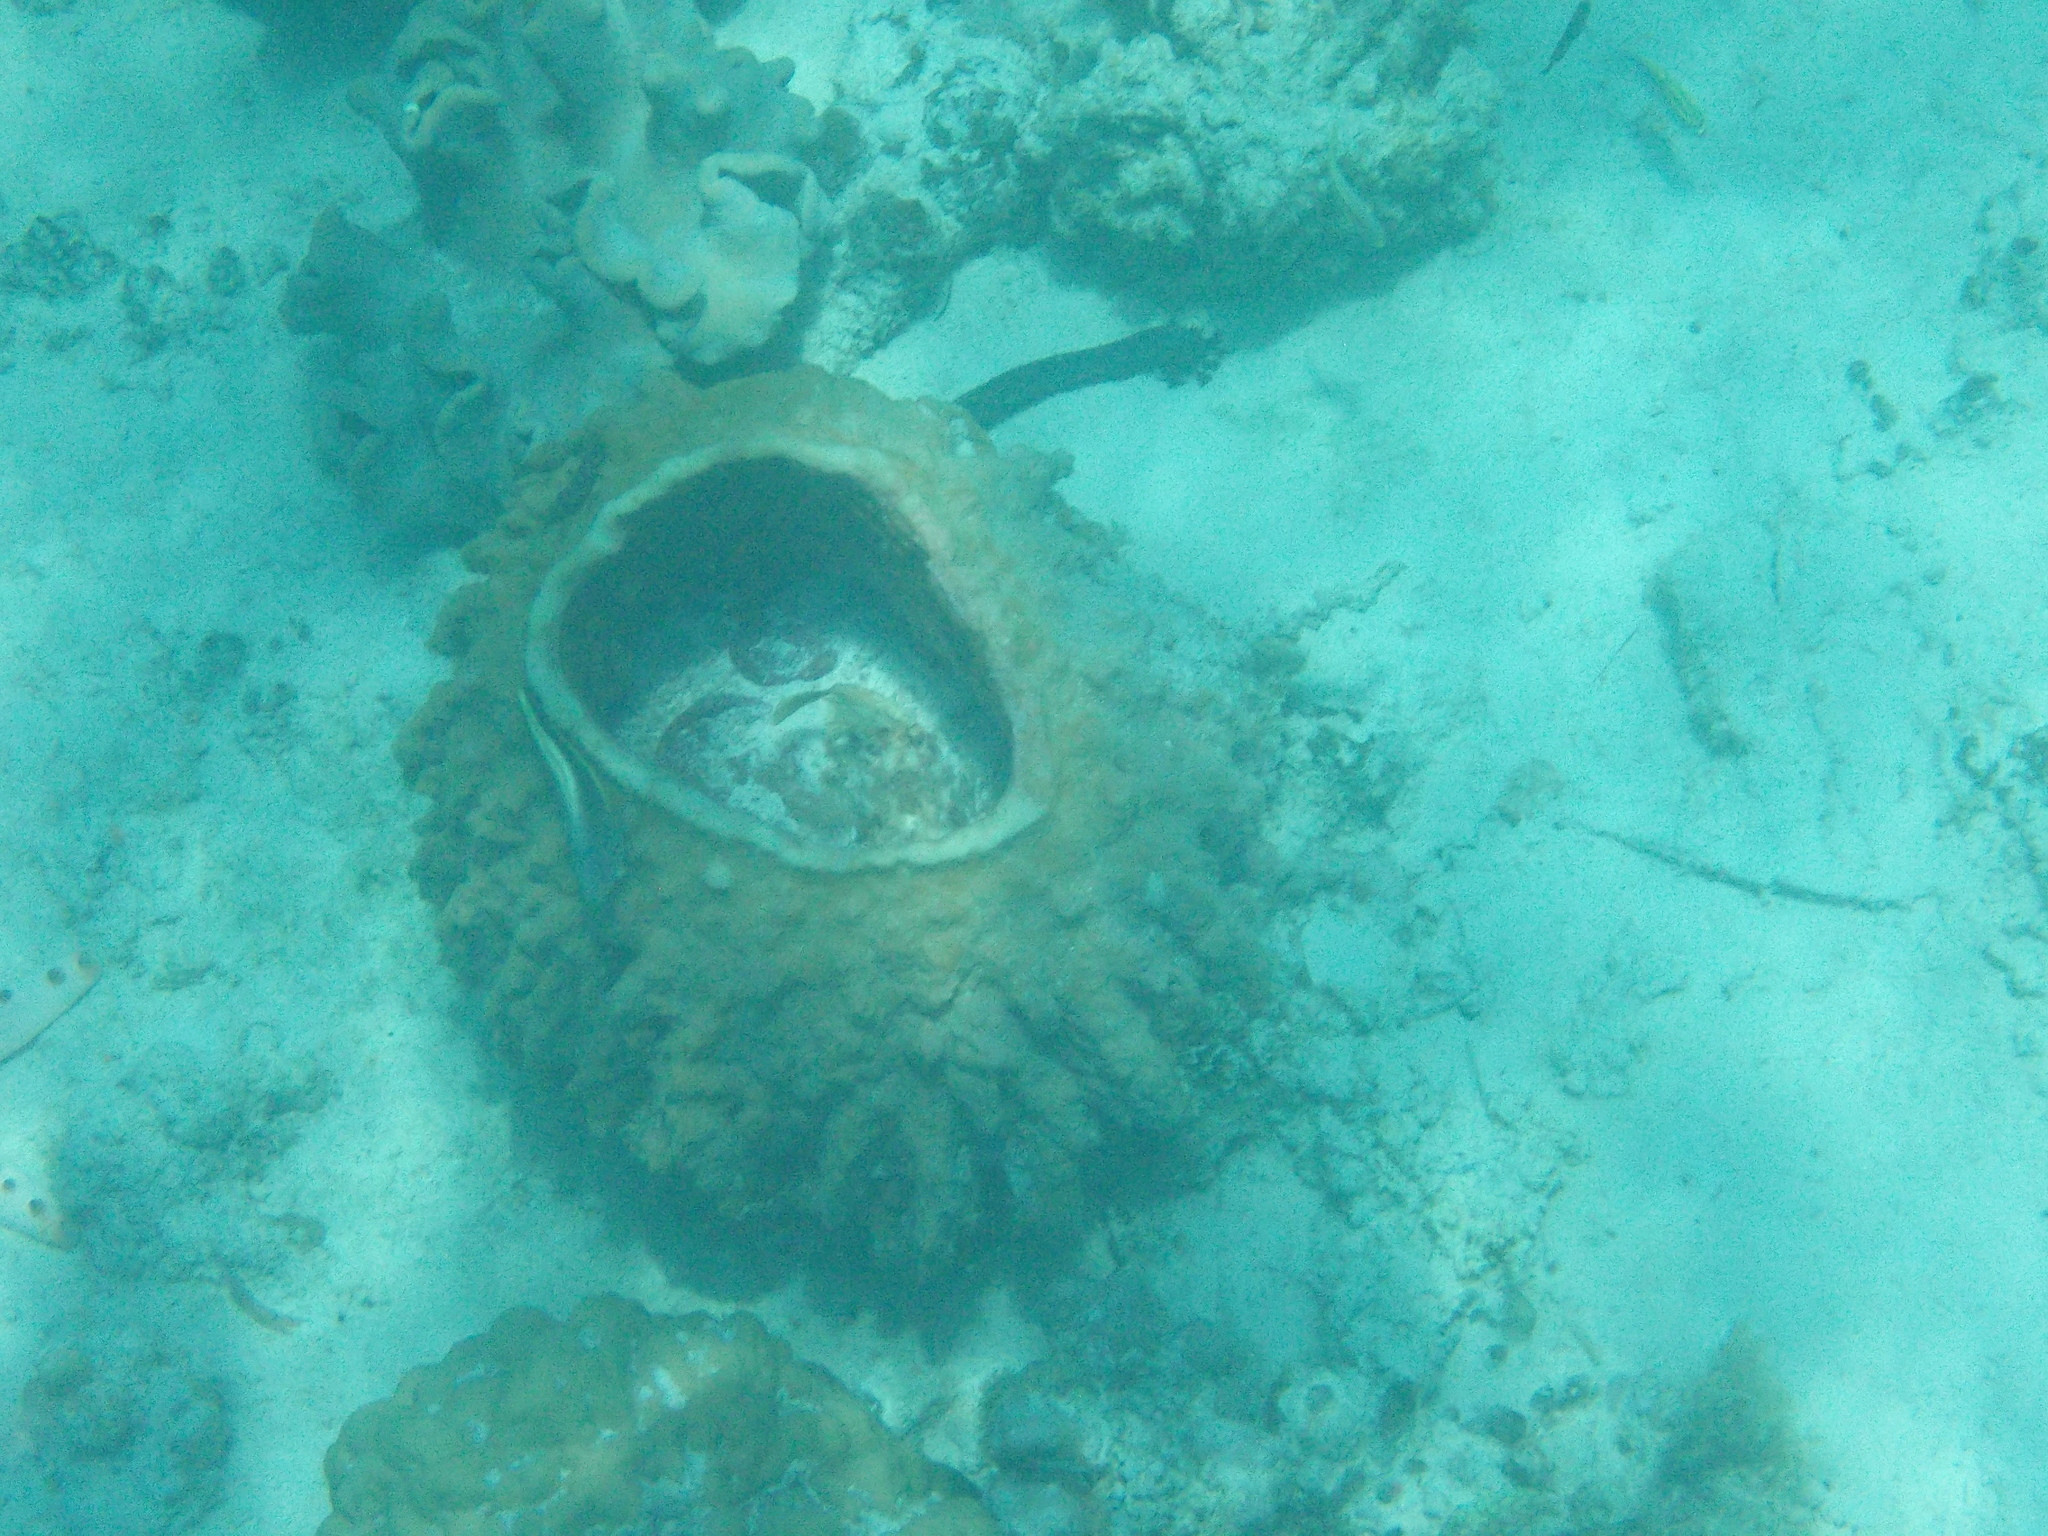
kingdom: Animalia
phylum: Porifera
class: Demospongiae
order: Haplosclerida
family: Petrosiidae
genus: Xestospongia
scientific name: Xestospongia testudinaria
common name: Barrel sponge
